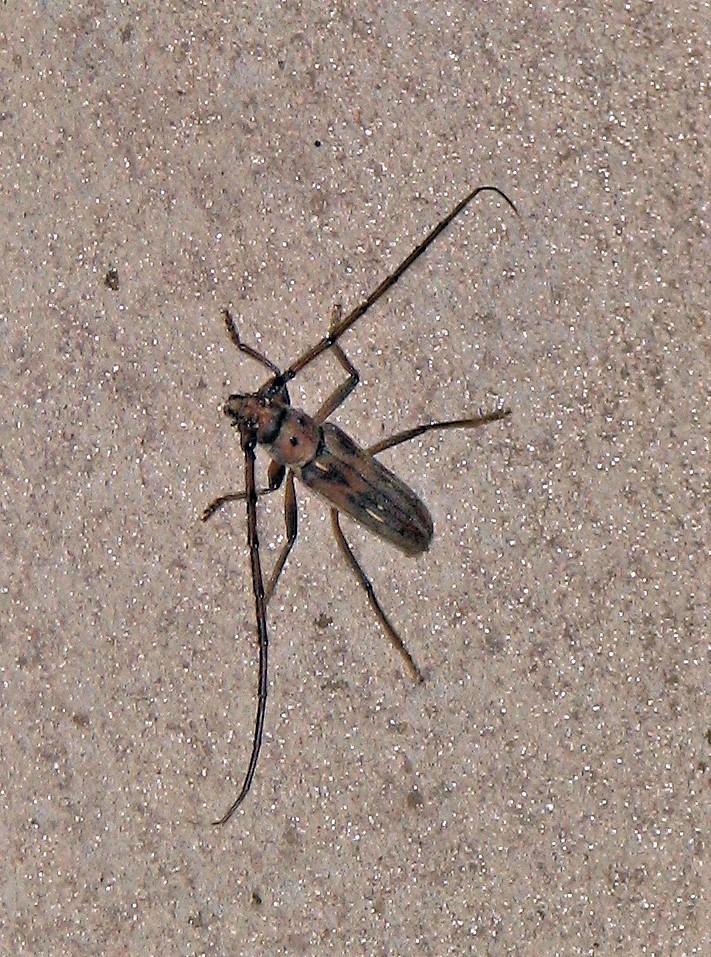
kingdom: Animalia
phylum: Arthropoda
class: Insecta
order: Coleoptera
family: Cerambycidae
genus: Uncieburia
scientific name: Uncieburia quadrilineata
